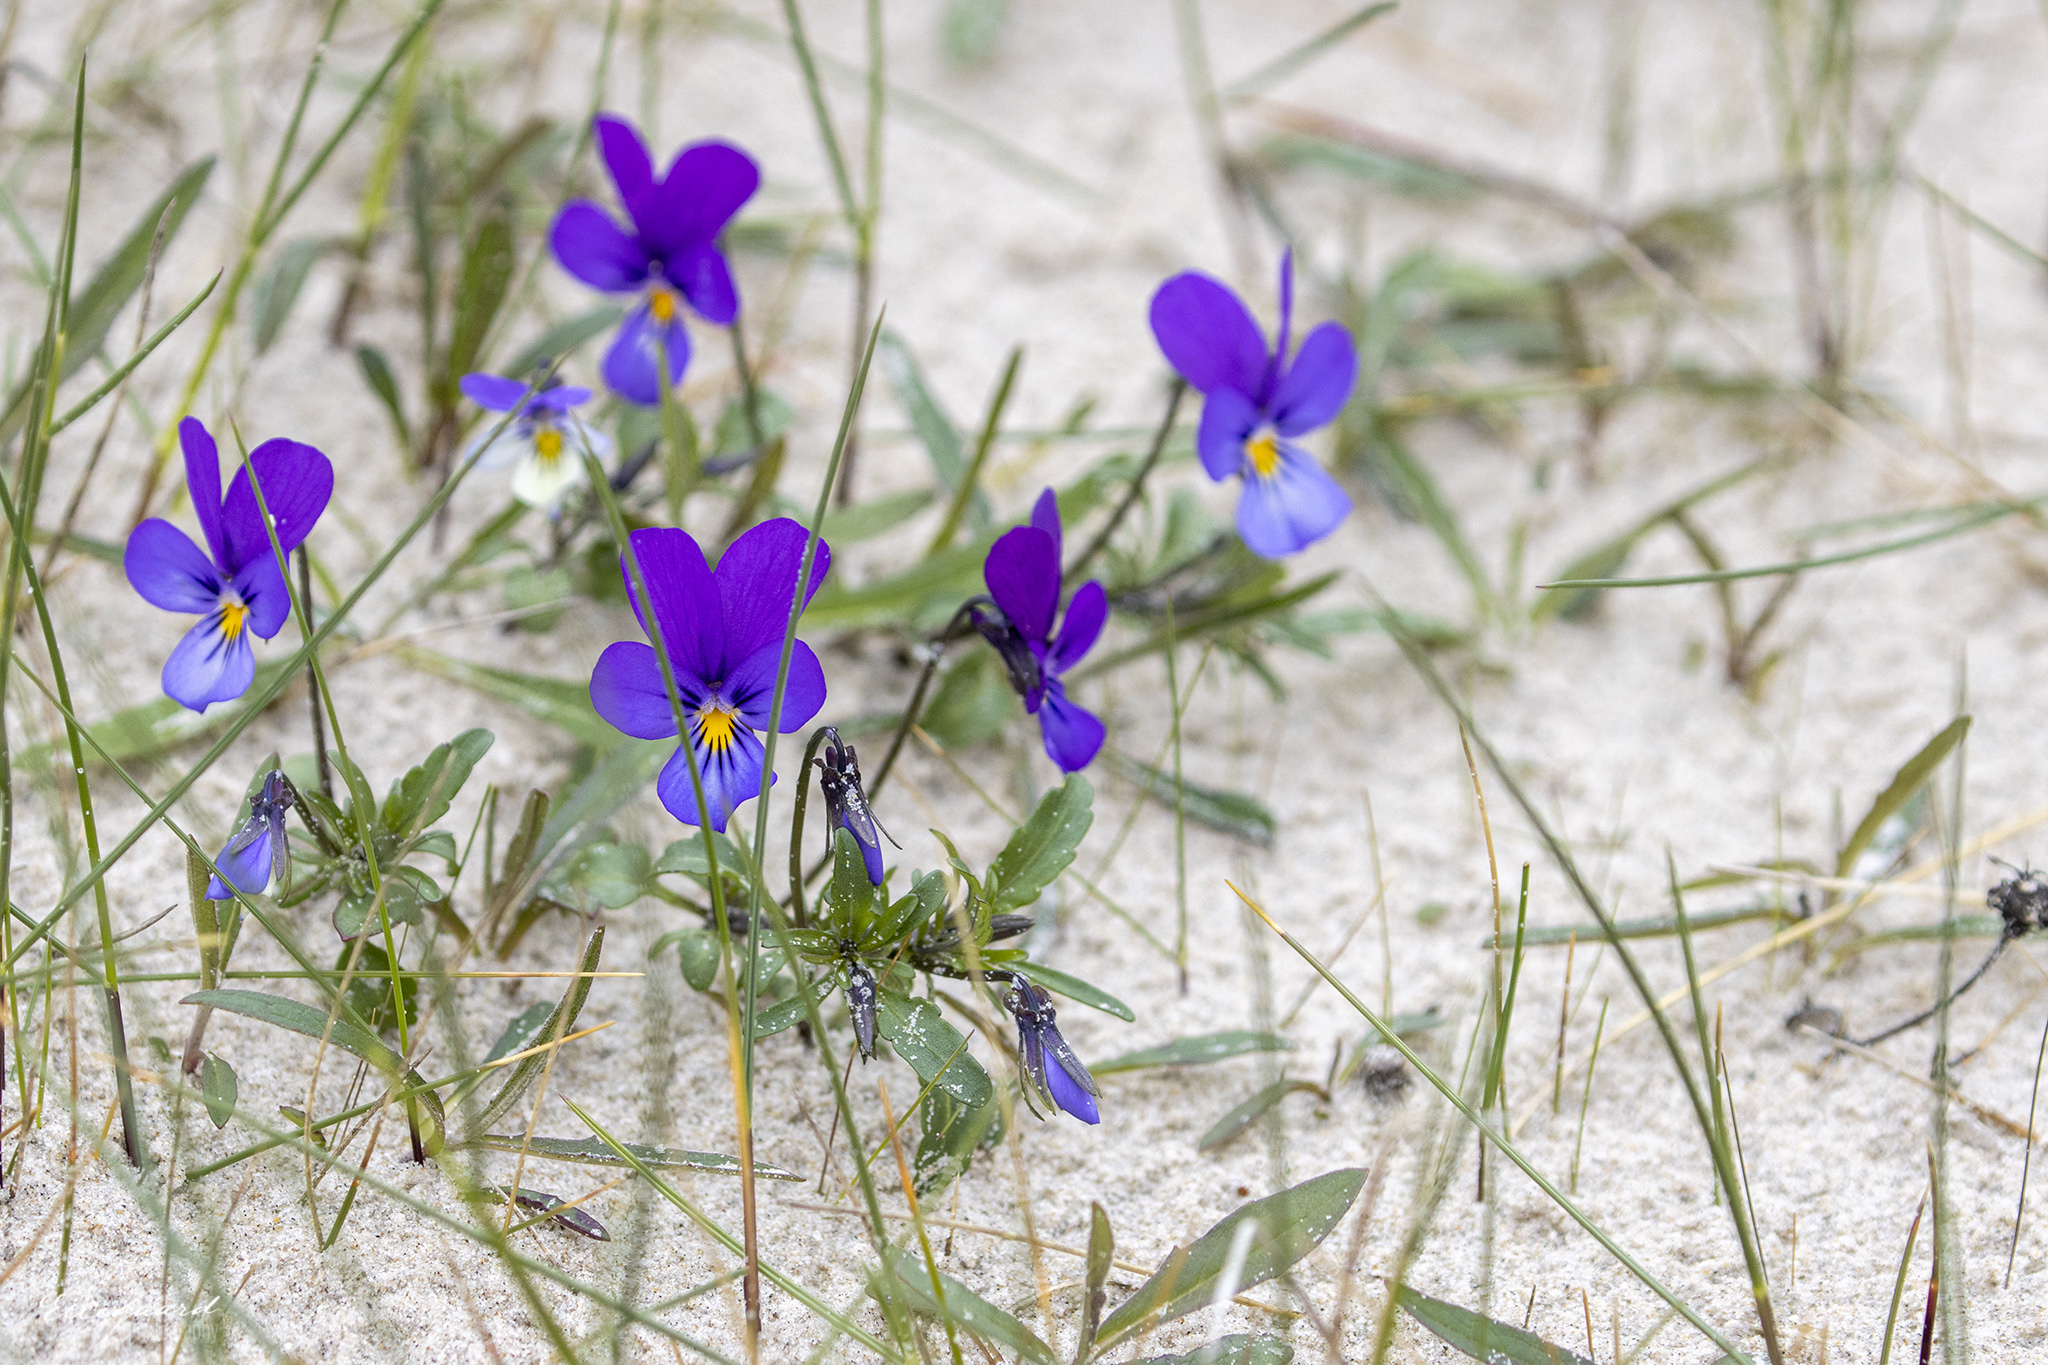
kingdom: Plantae
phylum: Tracheophyta
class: Magnoliopsida
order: Malpighiales
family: Violaceae
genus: Viola
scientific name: Viola tricolor
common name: Pansy
